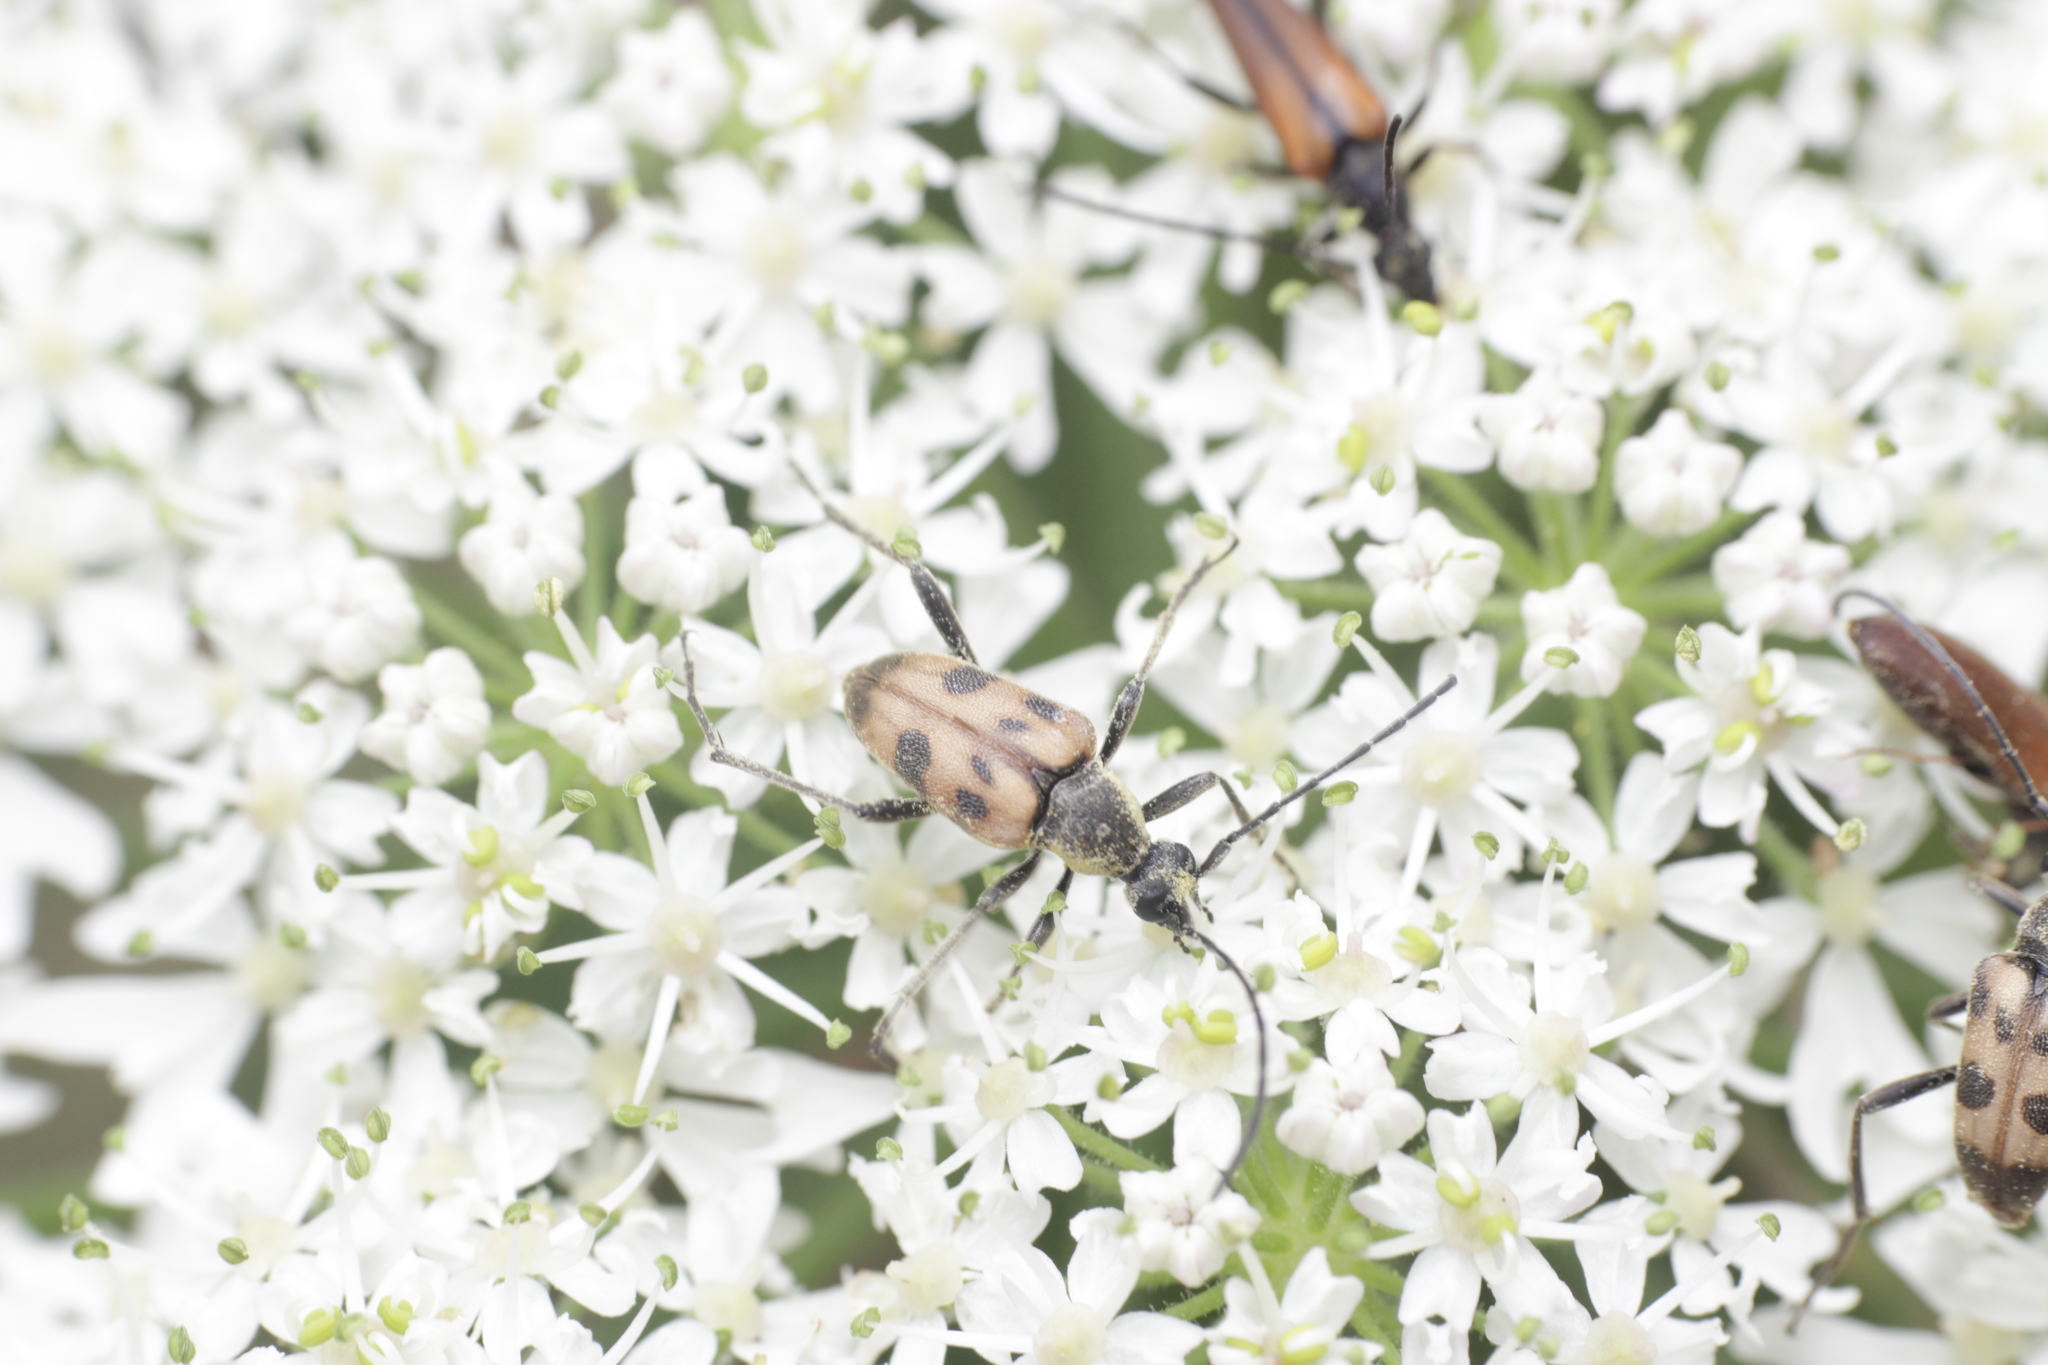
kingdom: Animalia
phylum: Arthropoda
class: Insecta
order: Coleoptera
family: Cerambycidae
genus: Pachytodes
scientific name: Pachytodes cerambyciformis
